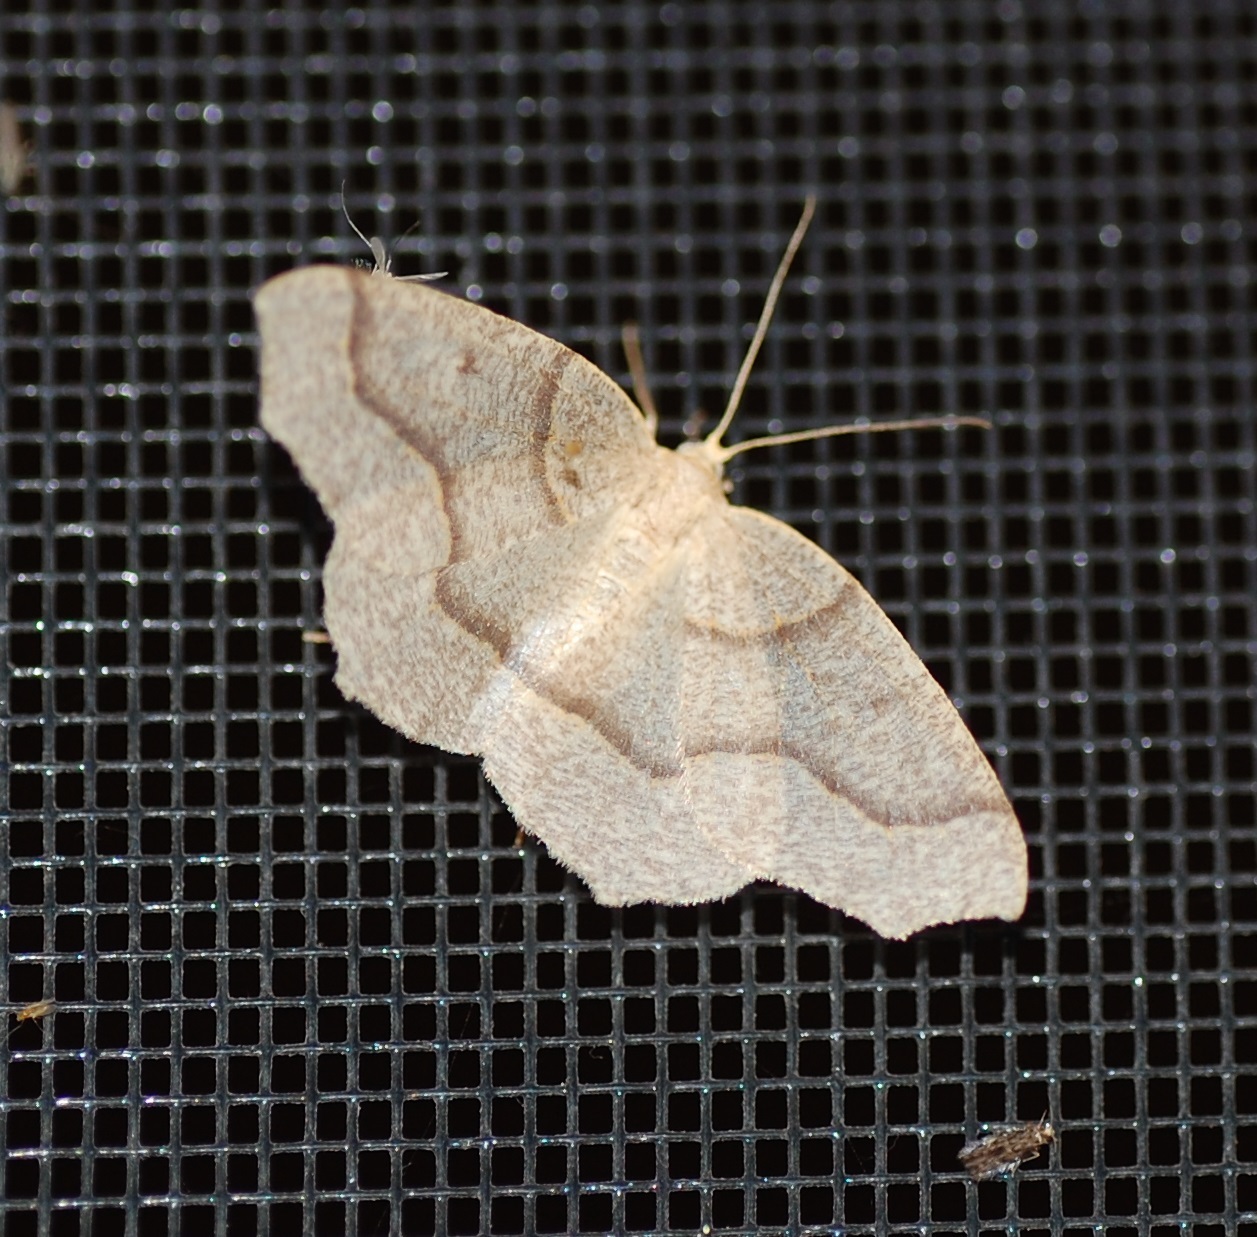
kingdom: Animalia
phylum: Arthropoda
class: Insecta
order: Lepidoptera
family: Geometridae
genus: Lambdina
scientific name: Lambdina fiscellaria
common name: Hemlock looper
